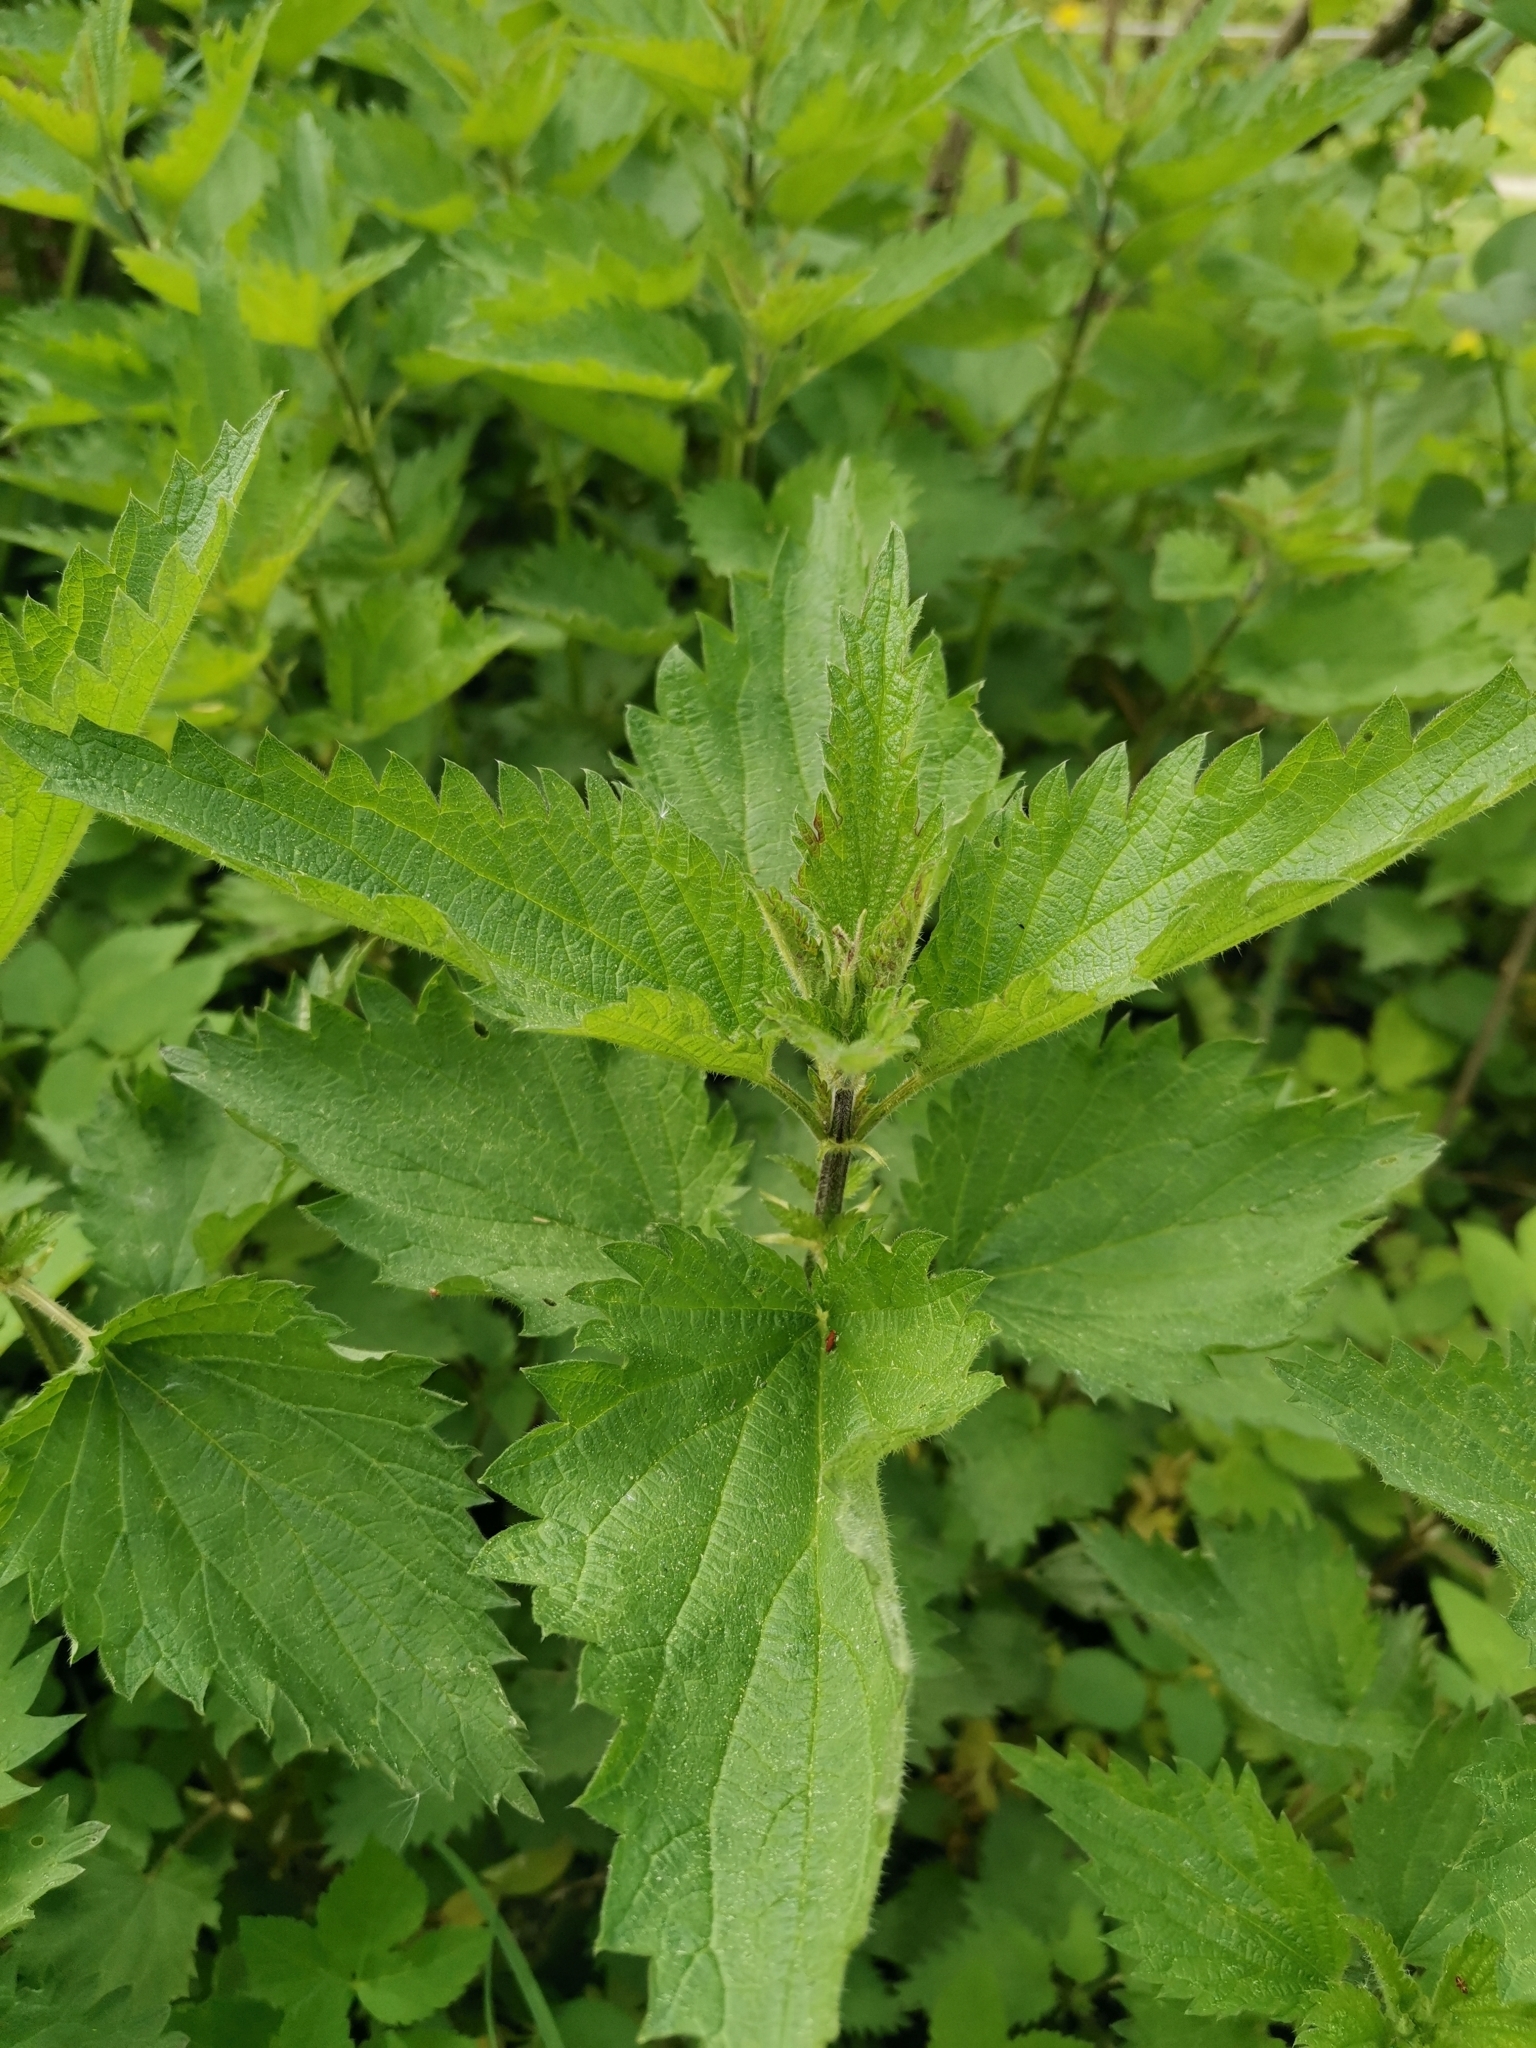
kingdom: Plantae
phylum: Tracheophyta
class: Magnoliopsida
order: Rosales
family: Urticaceae
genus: Urtica
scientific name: Urtica dioica
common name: Common nettle
